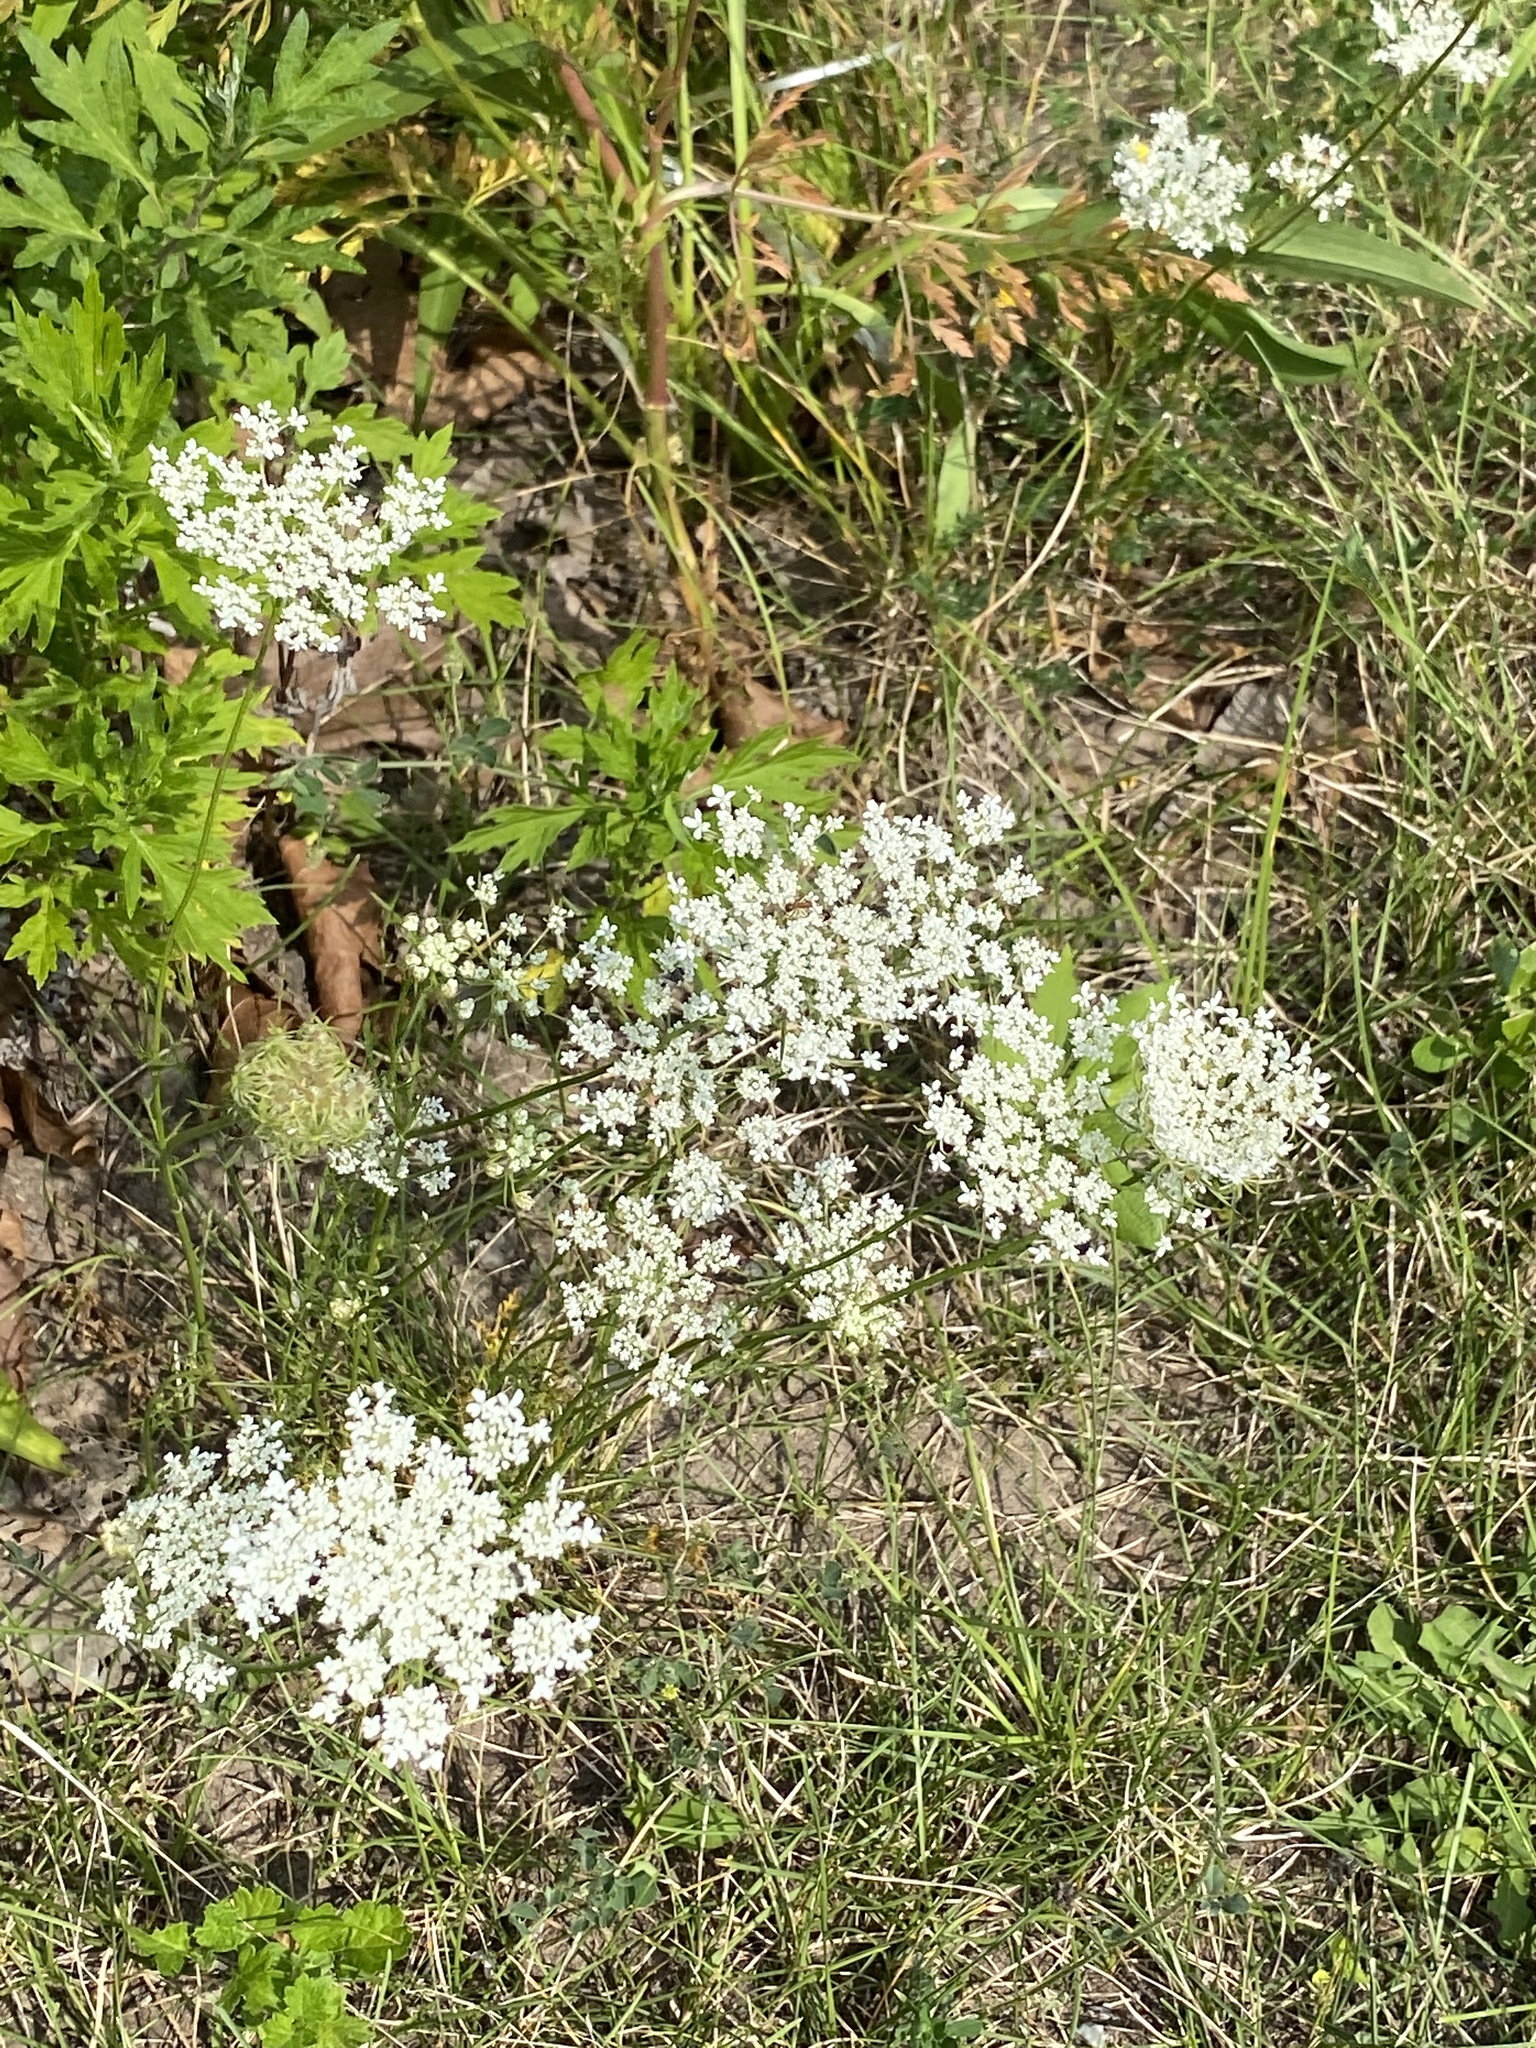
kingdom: Plantae
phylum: Tracheophyta
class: Magnoliopsida
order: Apiales
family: Apiaceae
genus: Daucus
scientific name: Daucus carota
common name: Wild carrot
